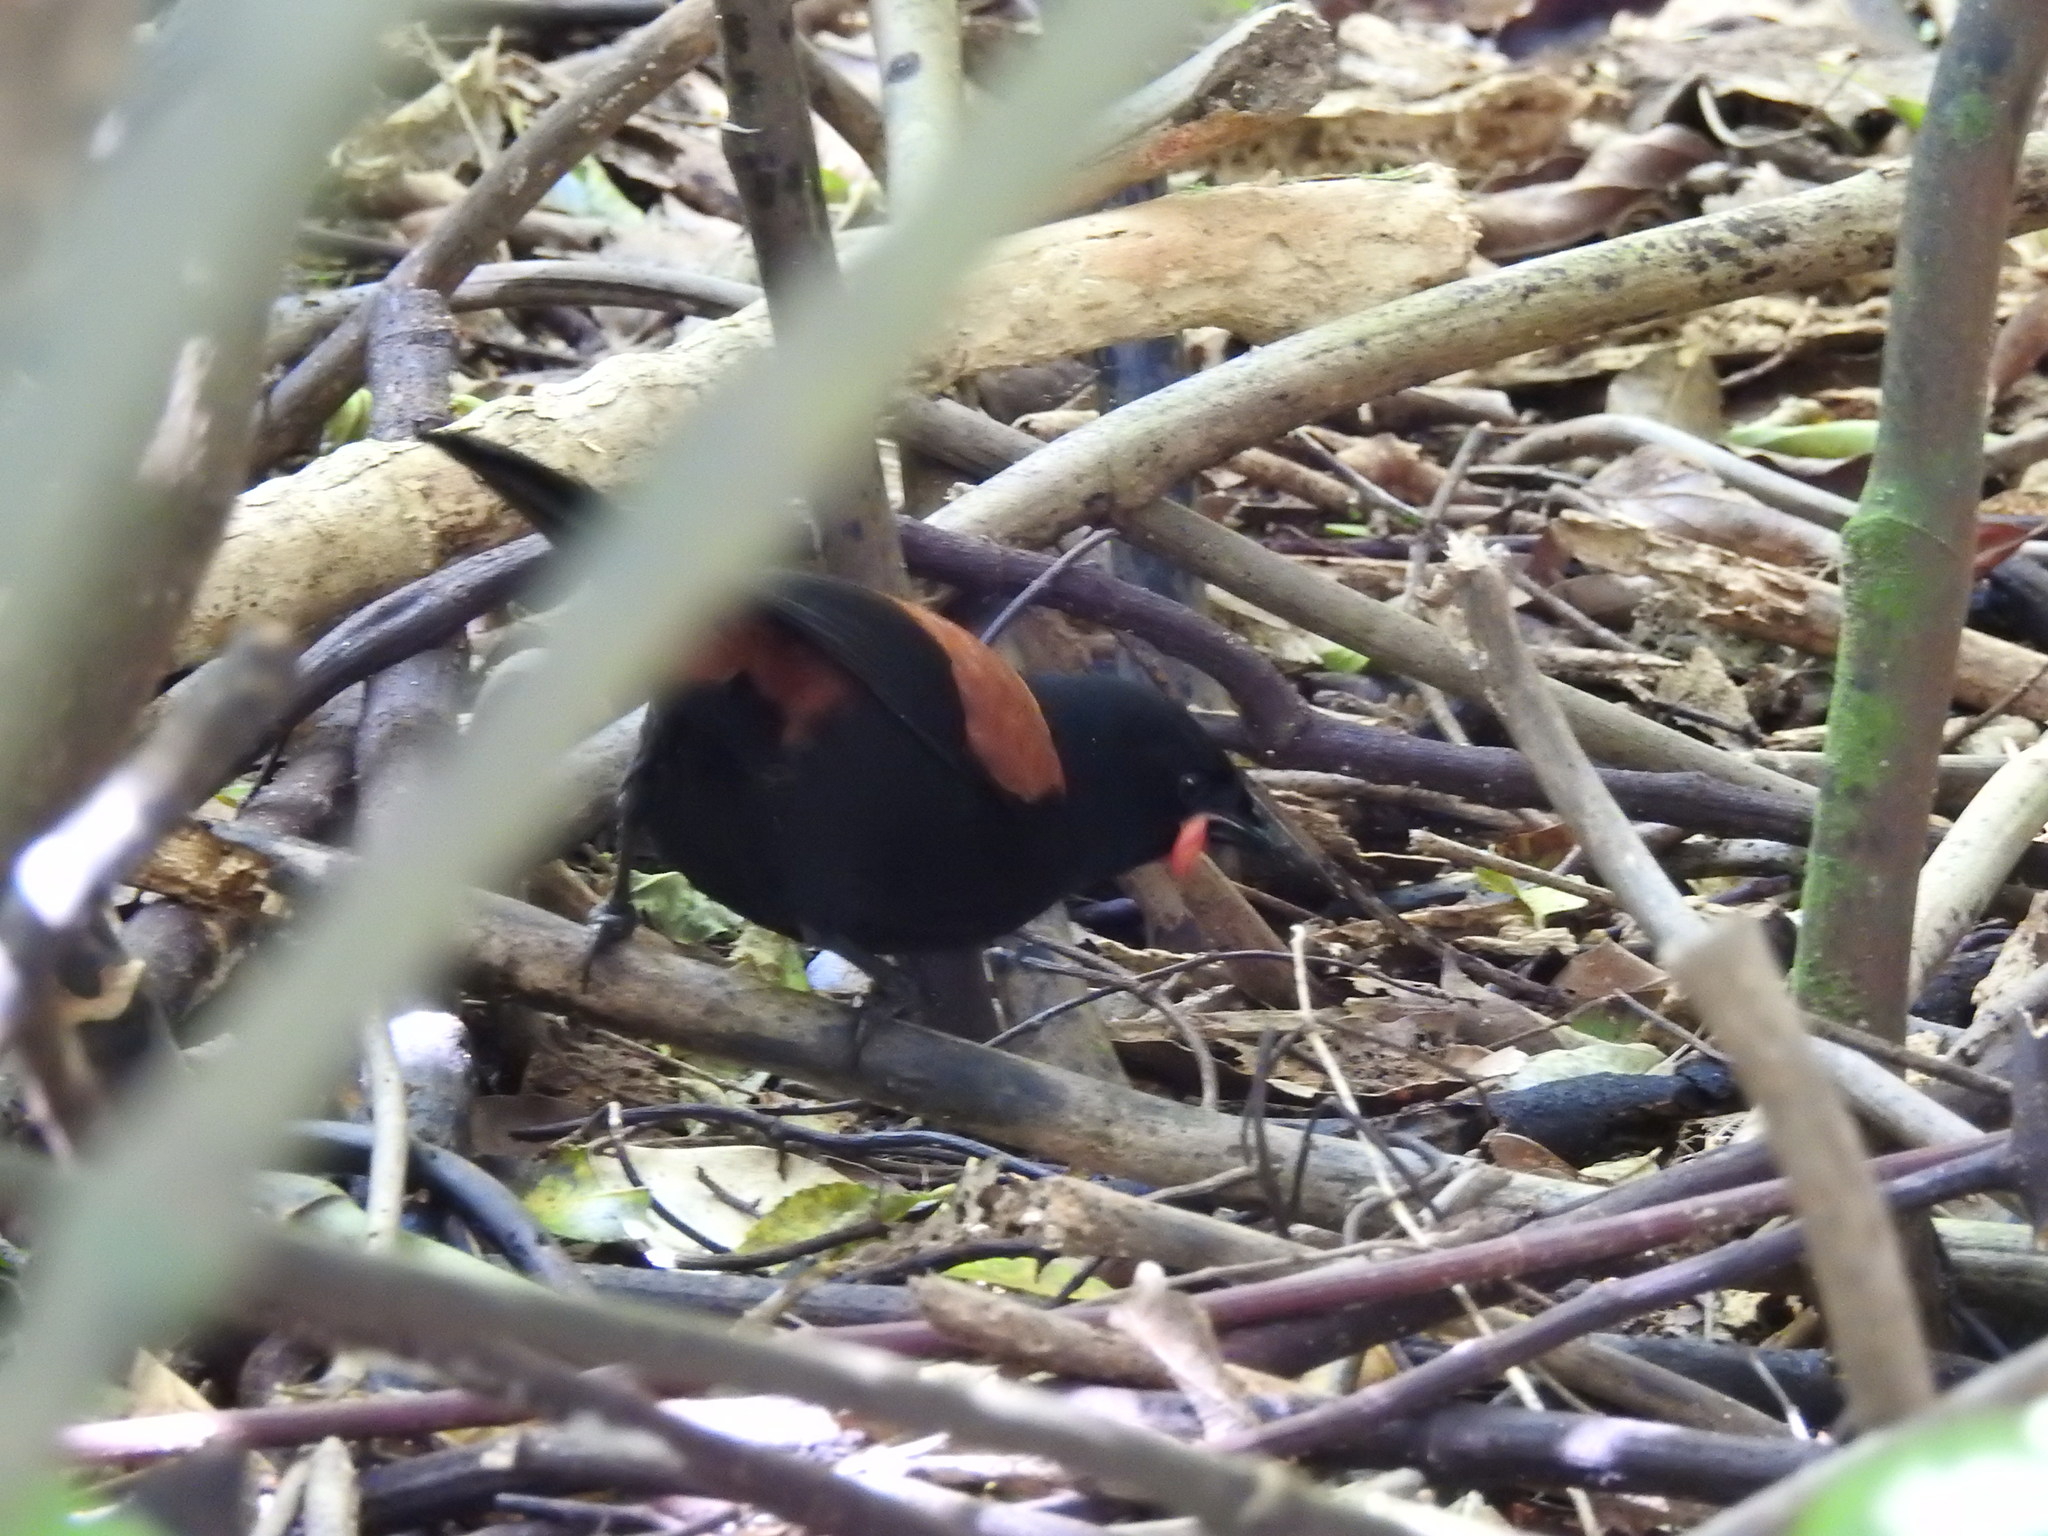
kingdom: Animalia
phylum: Chordata
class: Aves
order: Passeriformes
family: Callaeatidae
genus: Philesturnus
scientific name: Philesturnus carunculatus
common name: South island saddleback
